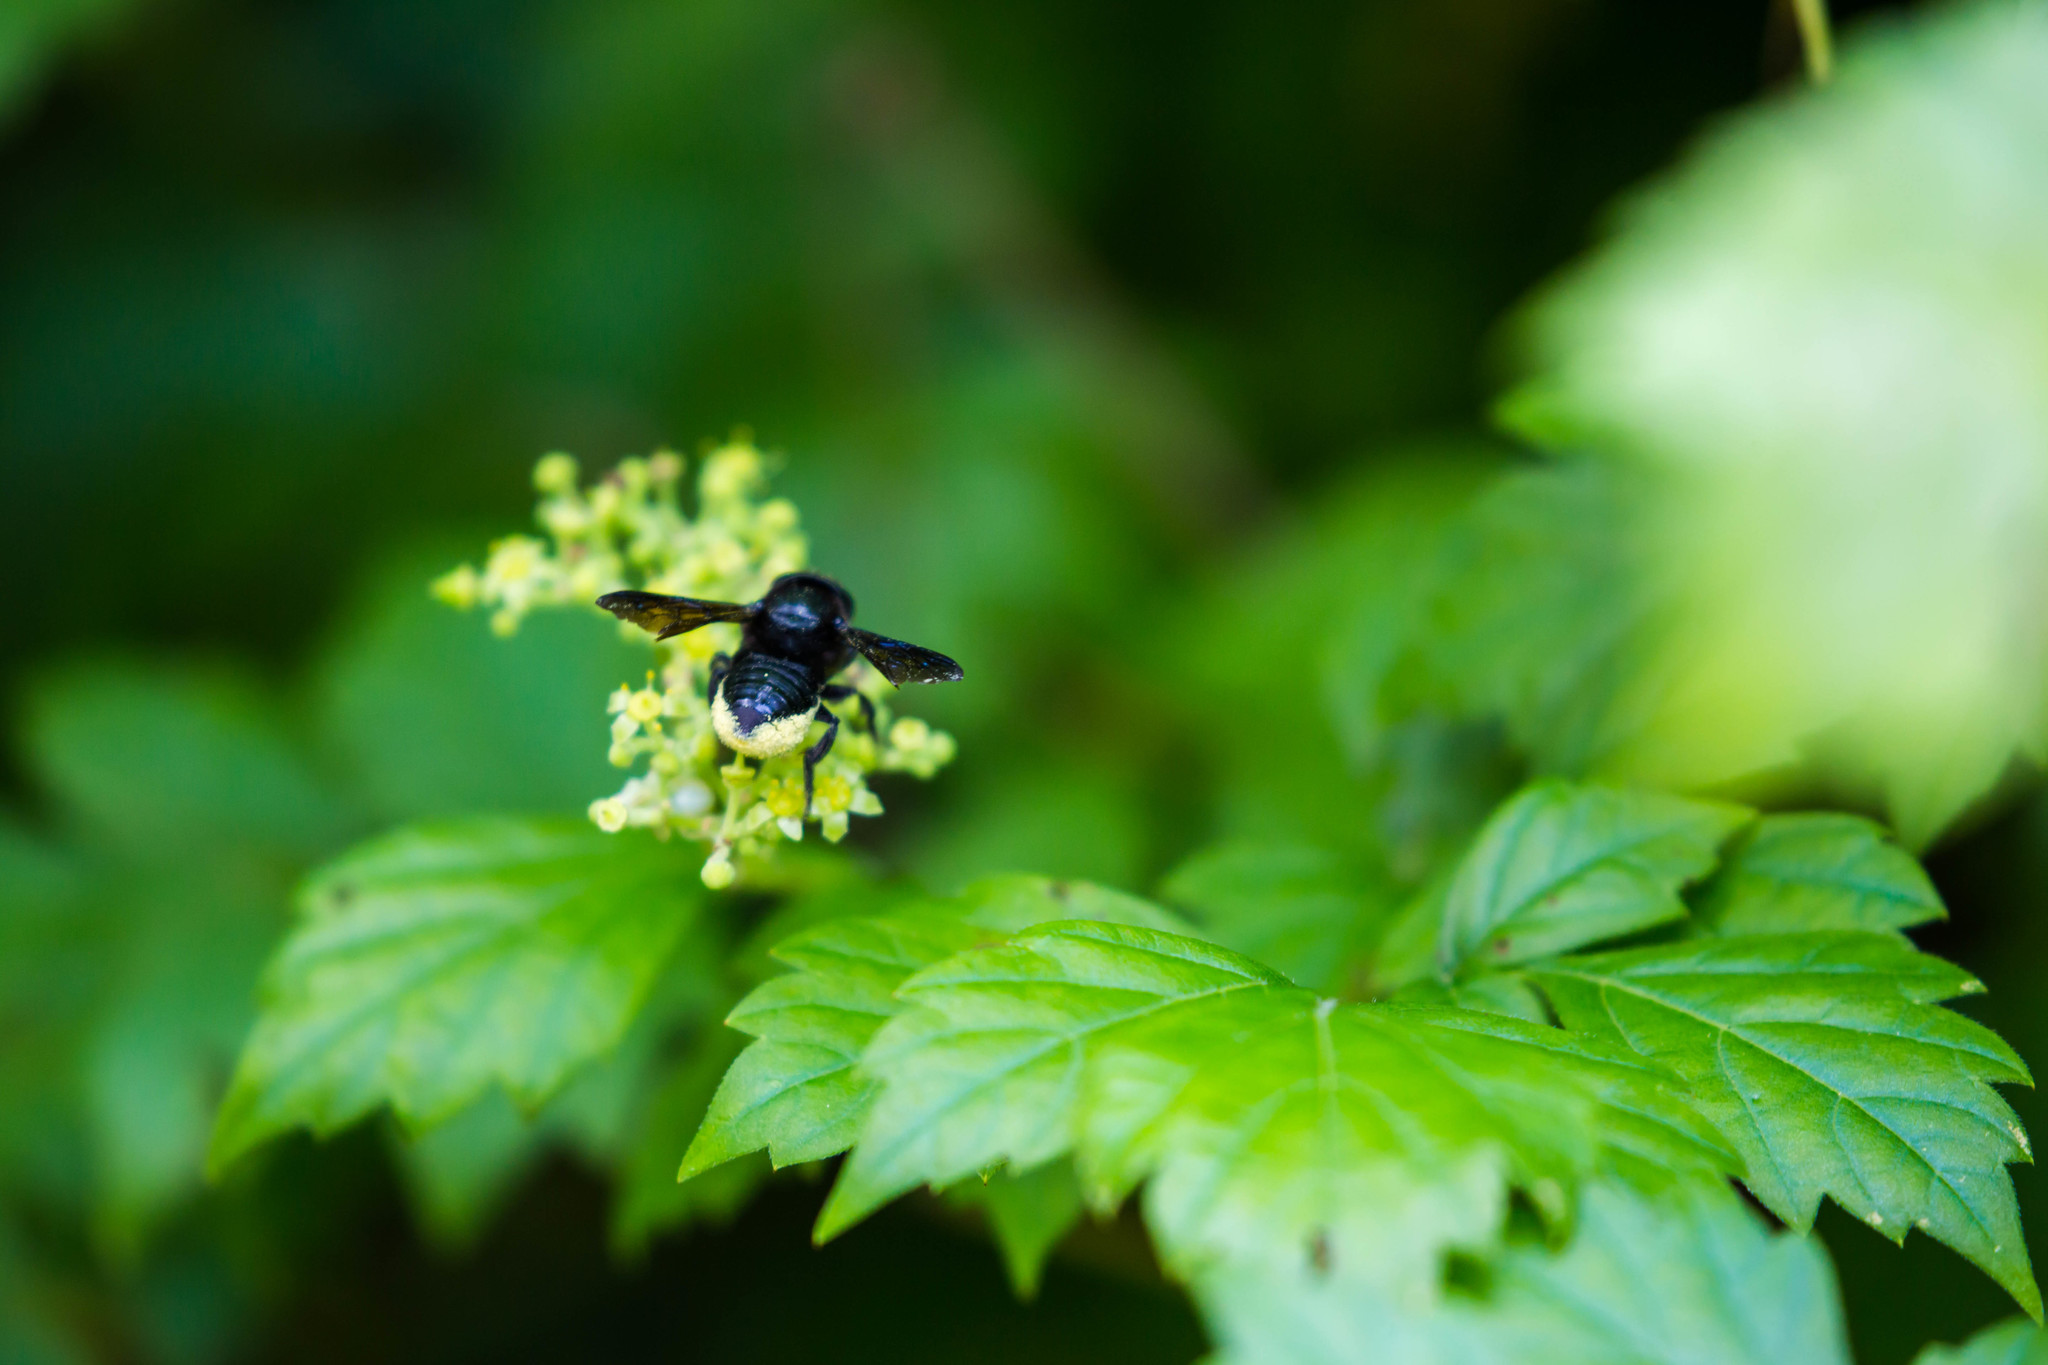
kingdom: Animalia
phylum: Arthropoda
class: Insecta
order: Hymenoptera
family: Megachilidae
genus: Megachile
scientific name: Megachile xylocopoides
